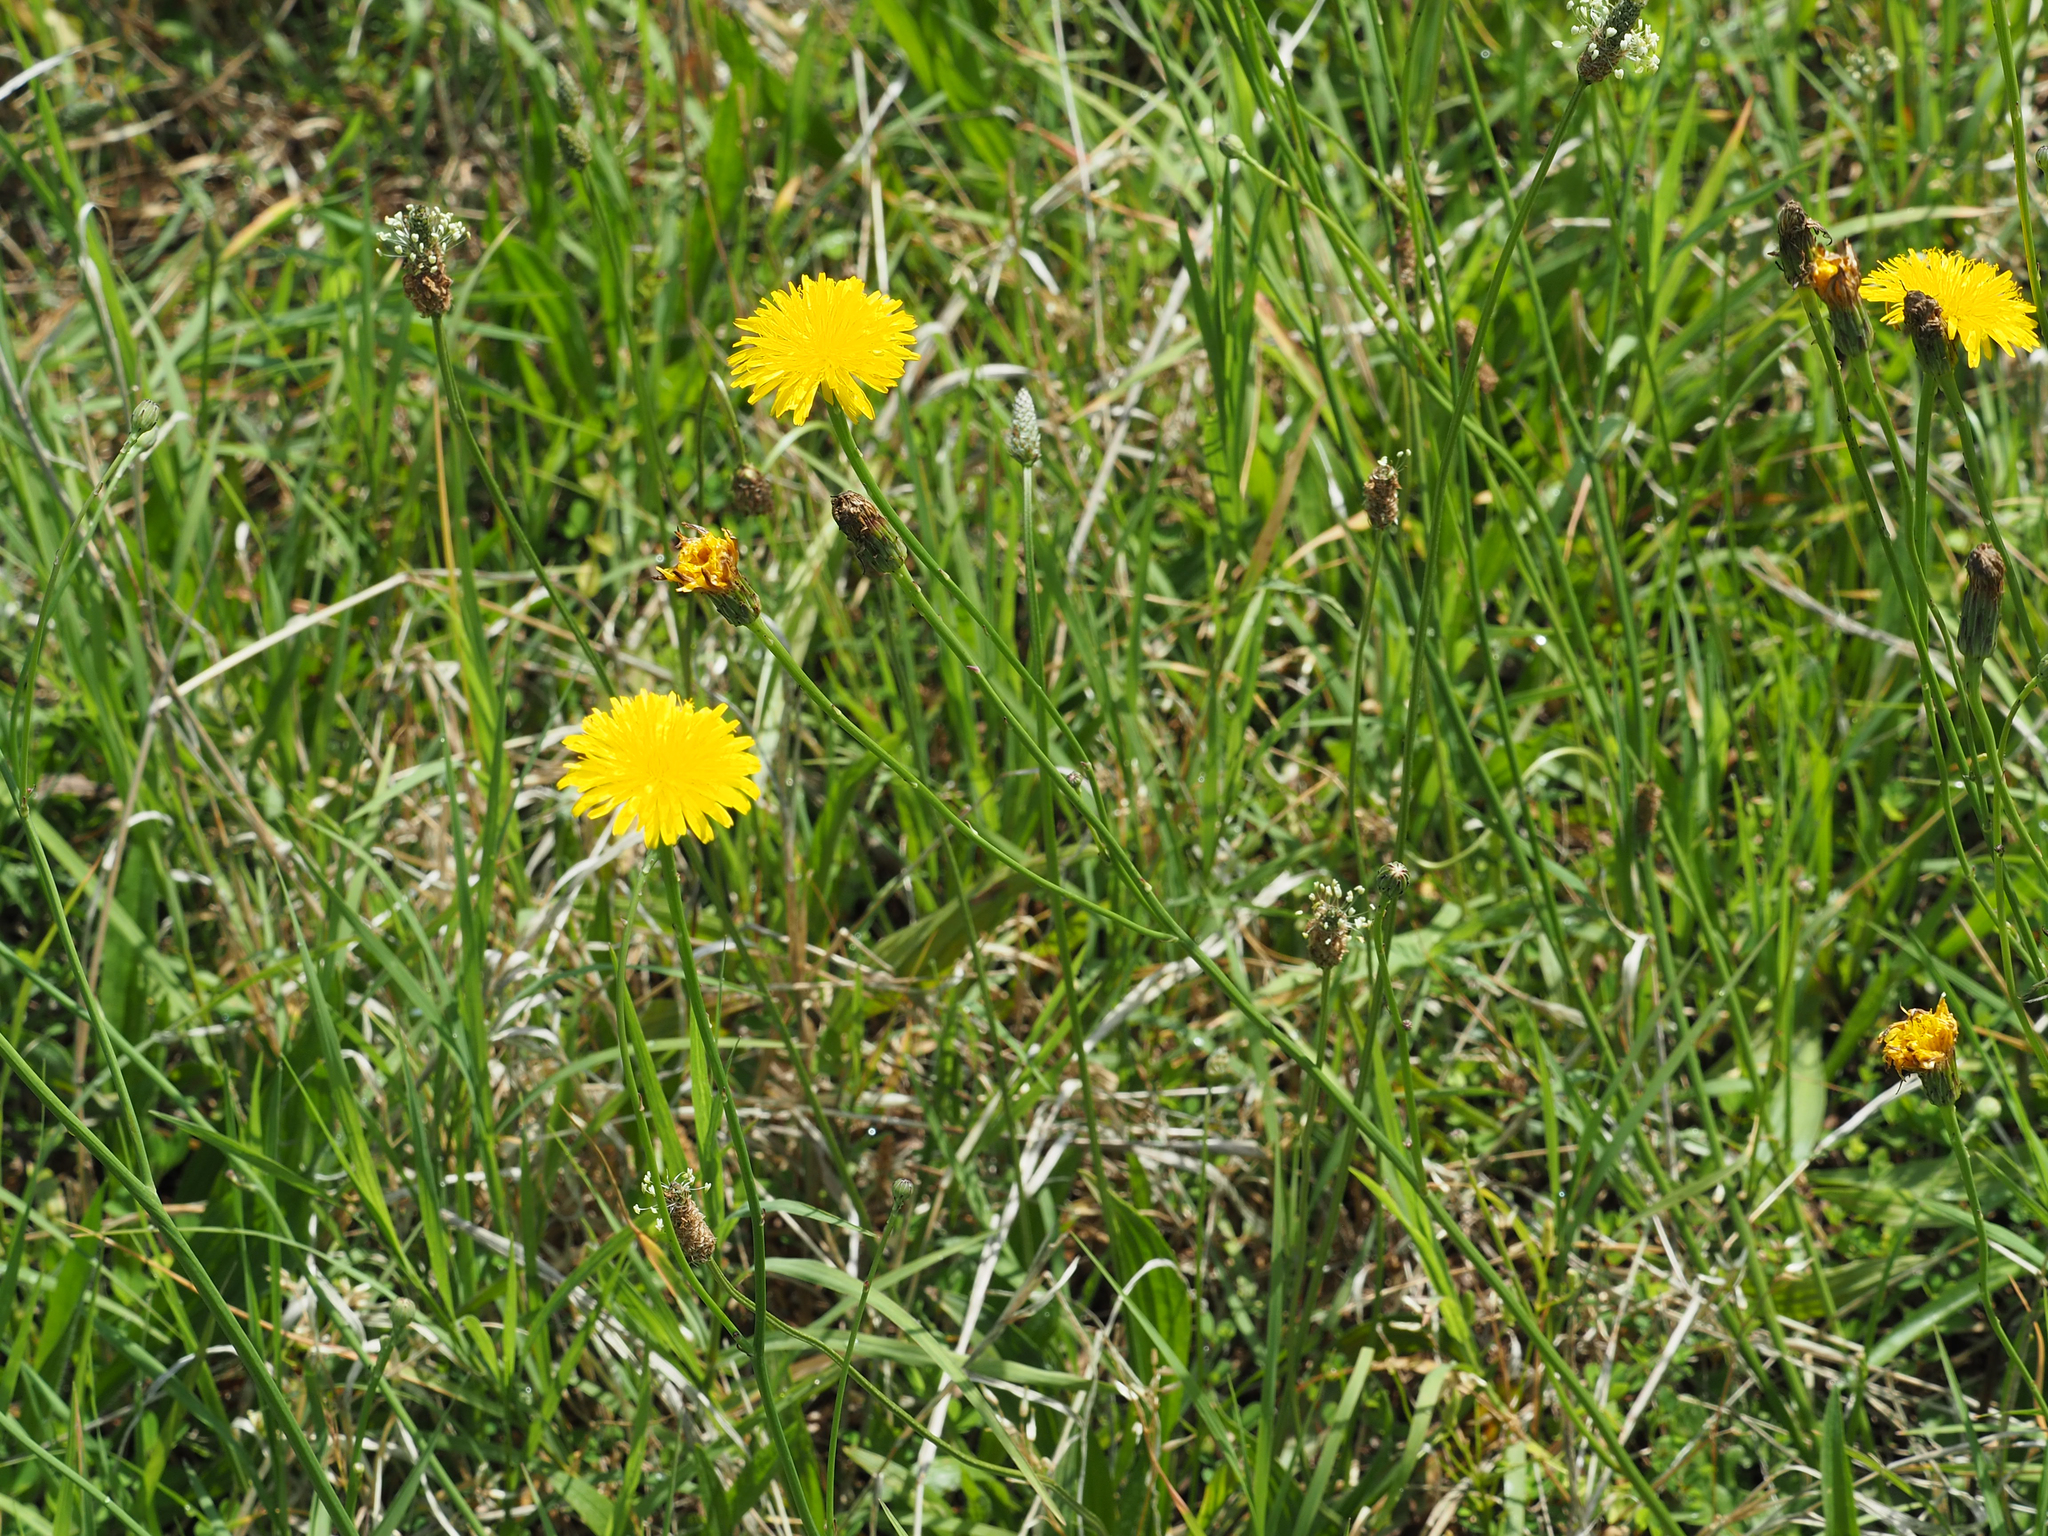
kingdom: Plantae
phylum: Tracheophyta
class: Magnoliopsida
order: Asterales
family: Asteraceae
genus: Hypochaeris
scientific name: Hypochaeris radicata
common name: Flatweed
